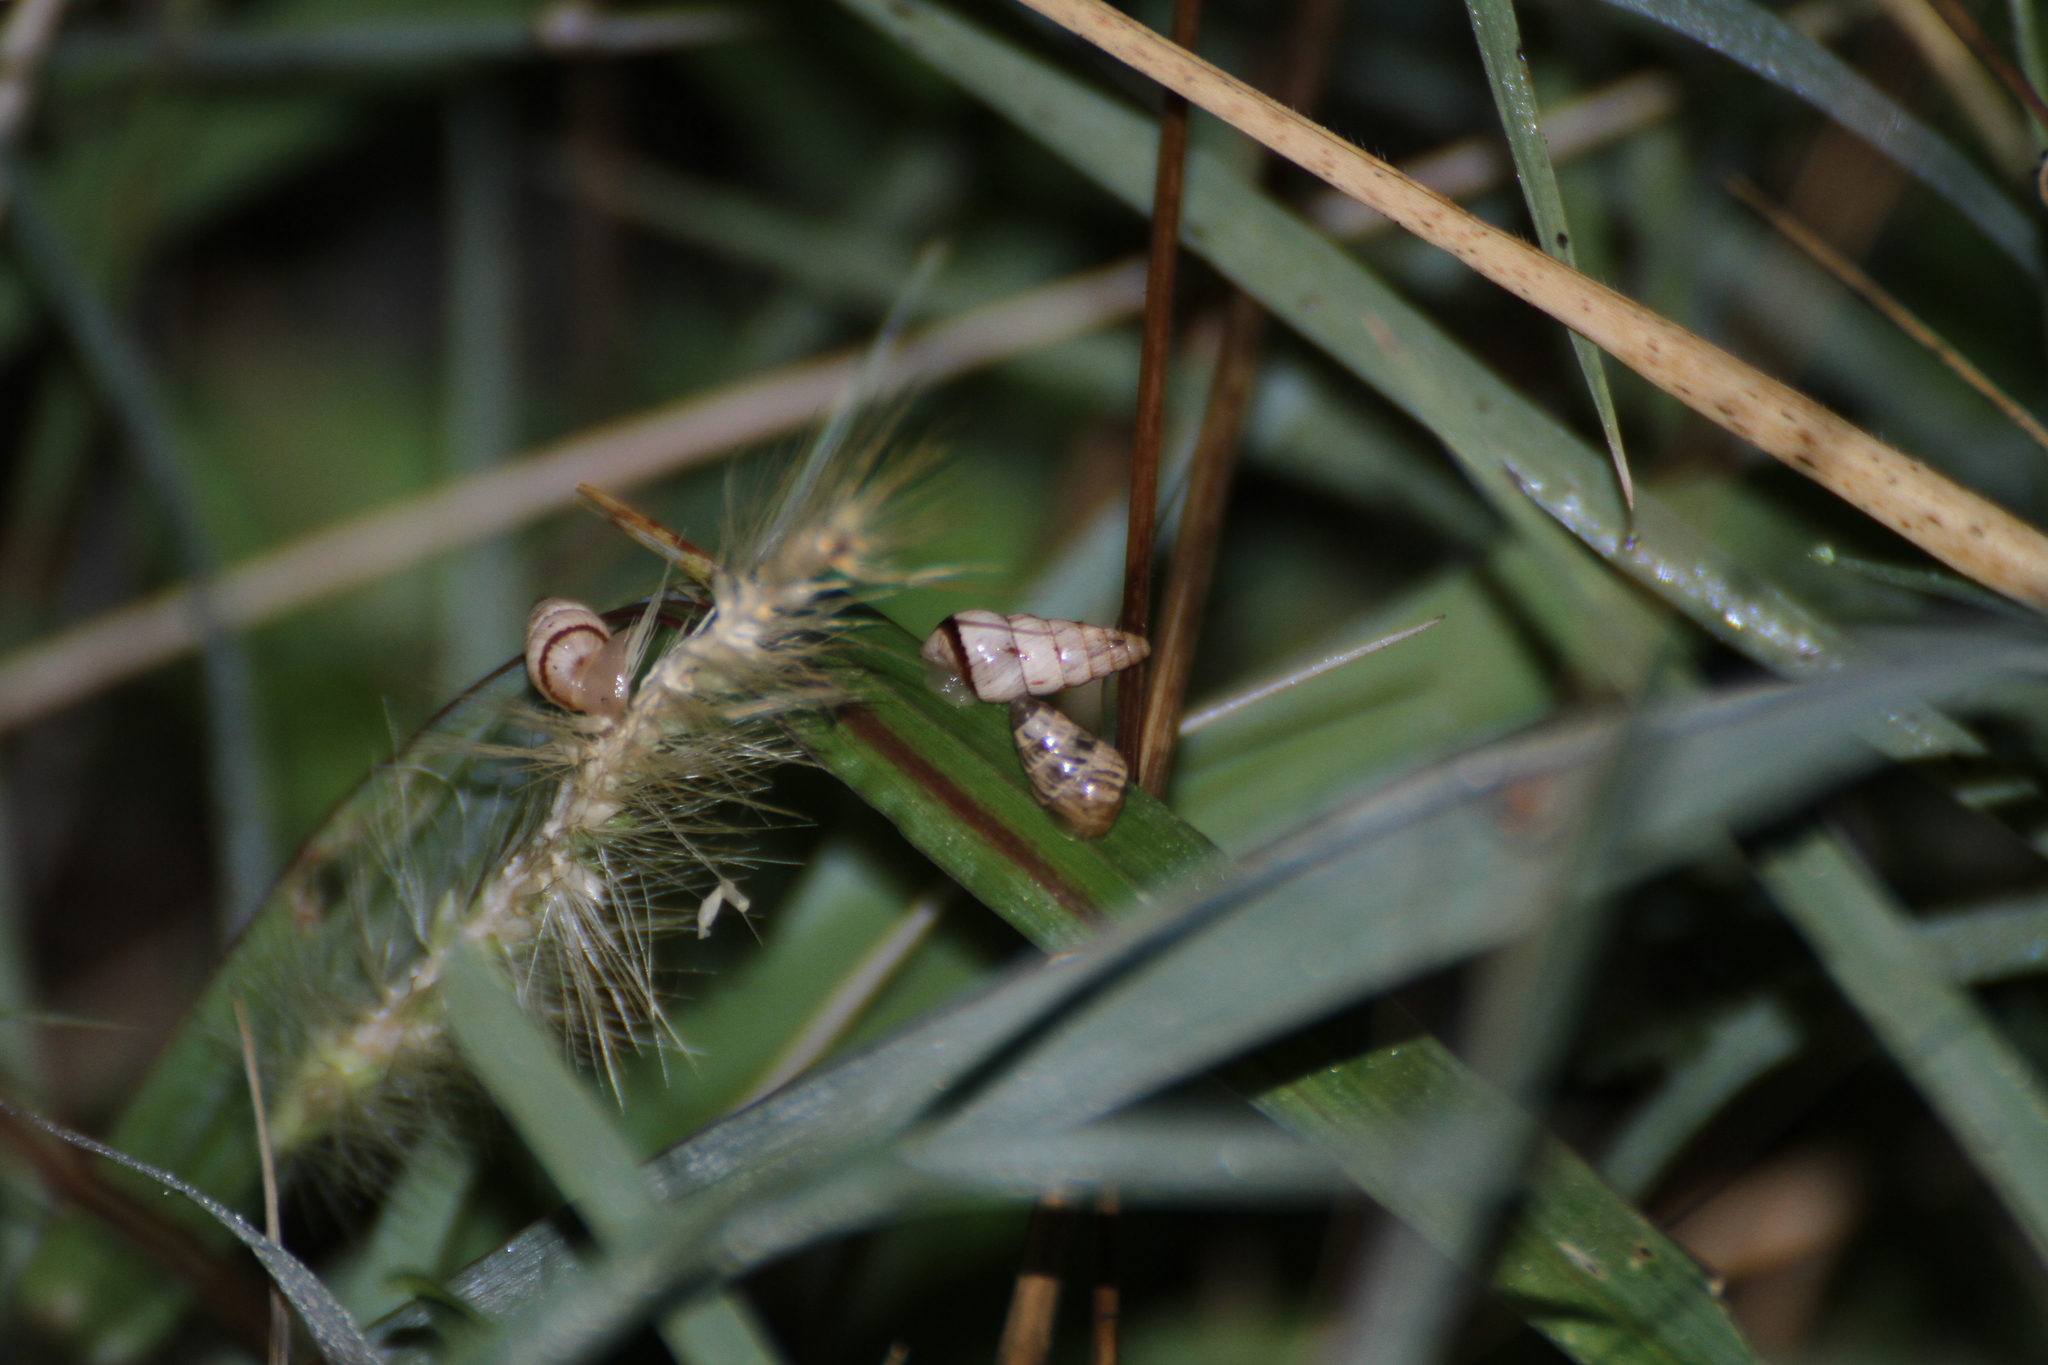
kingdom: Animalia
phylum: Mollusca
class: Gastropoda
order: Stylommatophora
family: Geomitridae
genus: Cochlicella
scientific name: Cochlicella acuta
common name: Pointed snail
